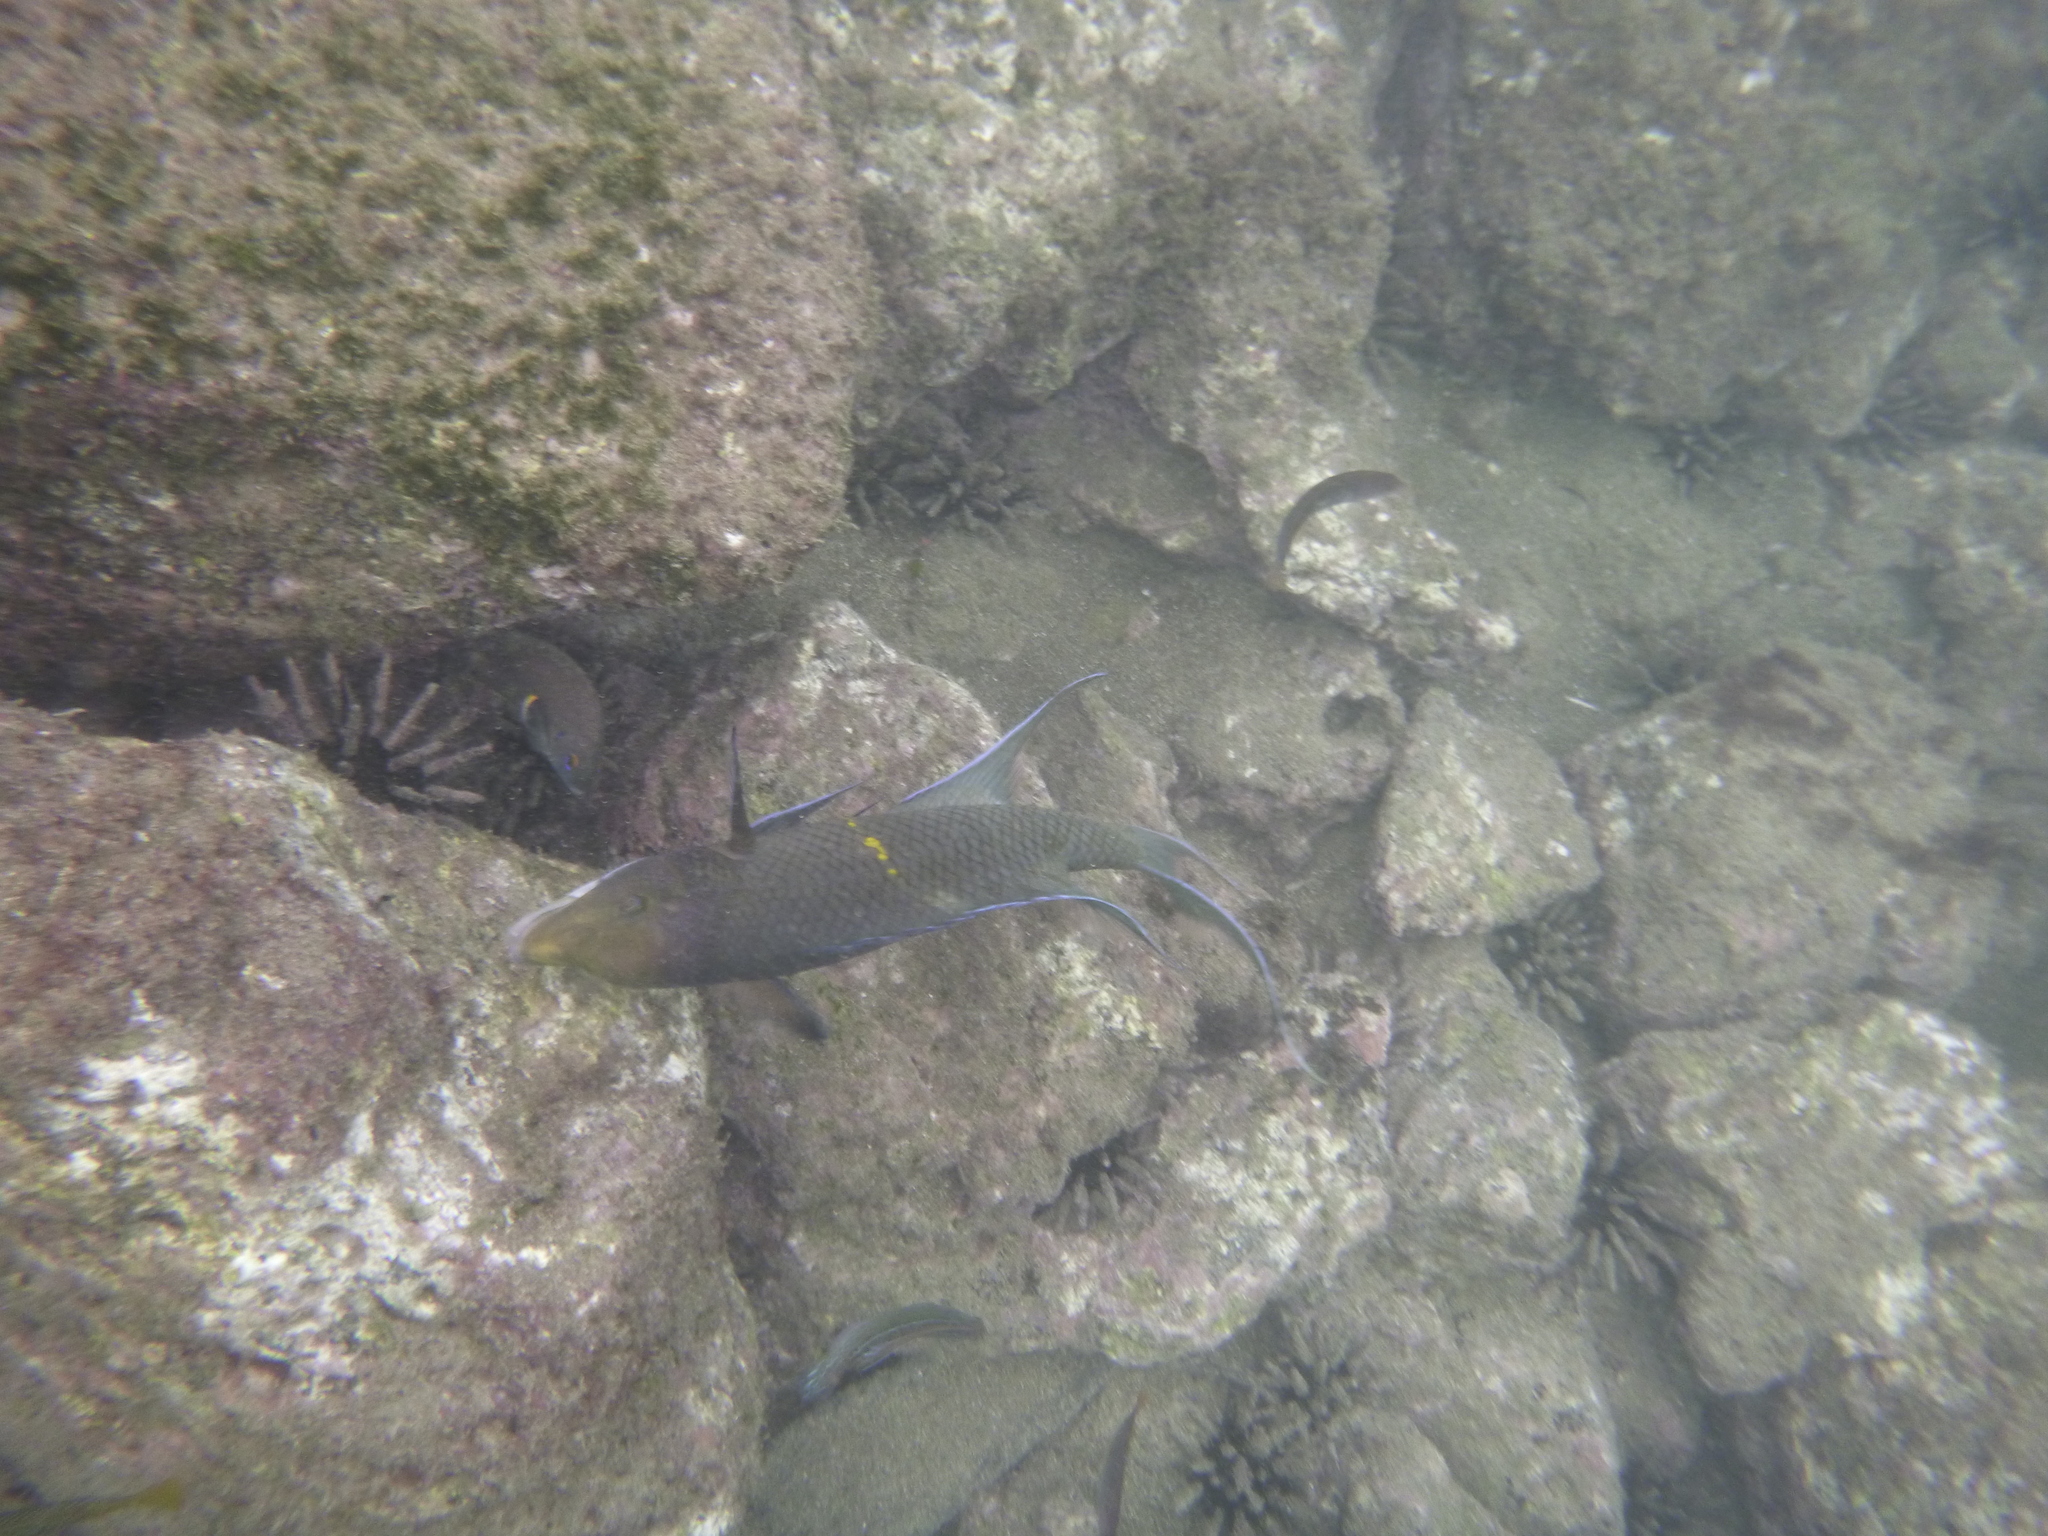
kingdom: Animalia
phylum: Chordata
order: Perciformes
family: Labridae
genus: Bodianus
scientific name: Bodianus diplotaenia
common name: Mexican hogfish
